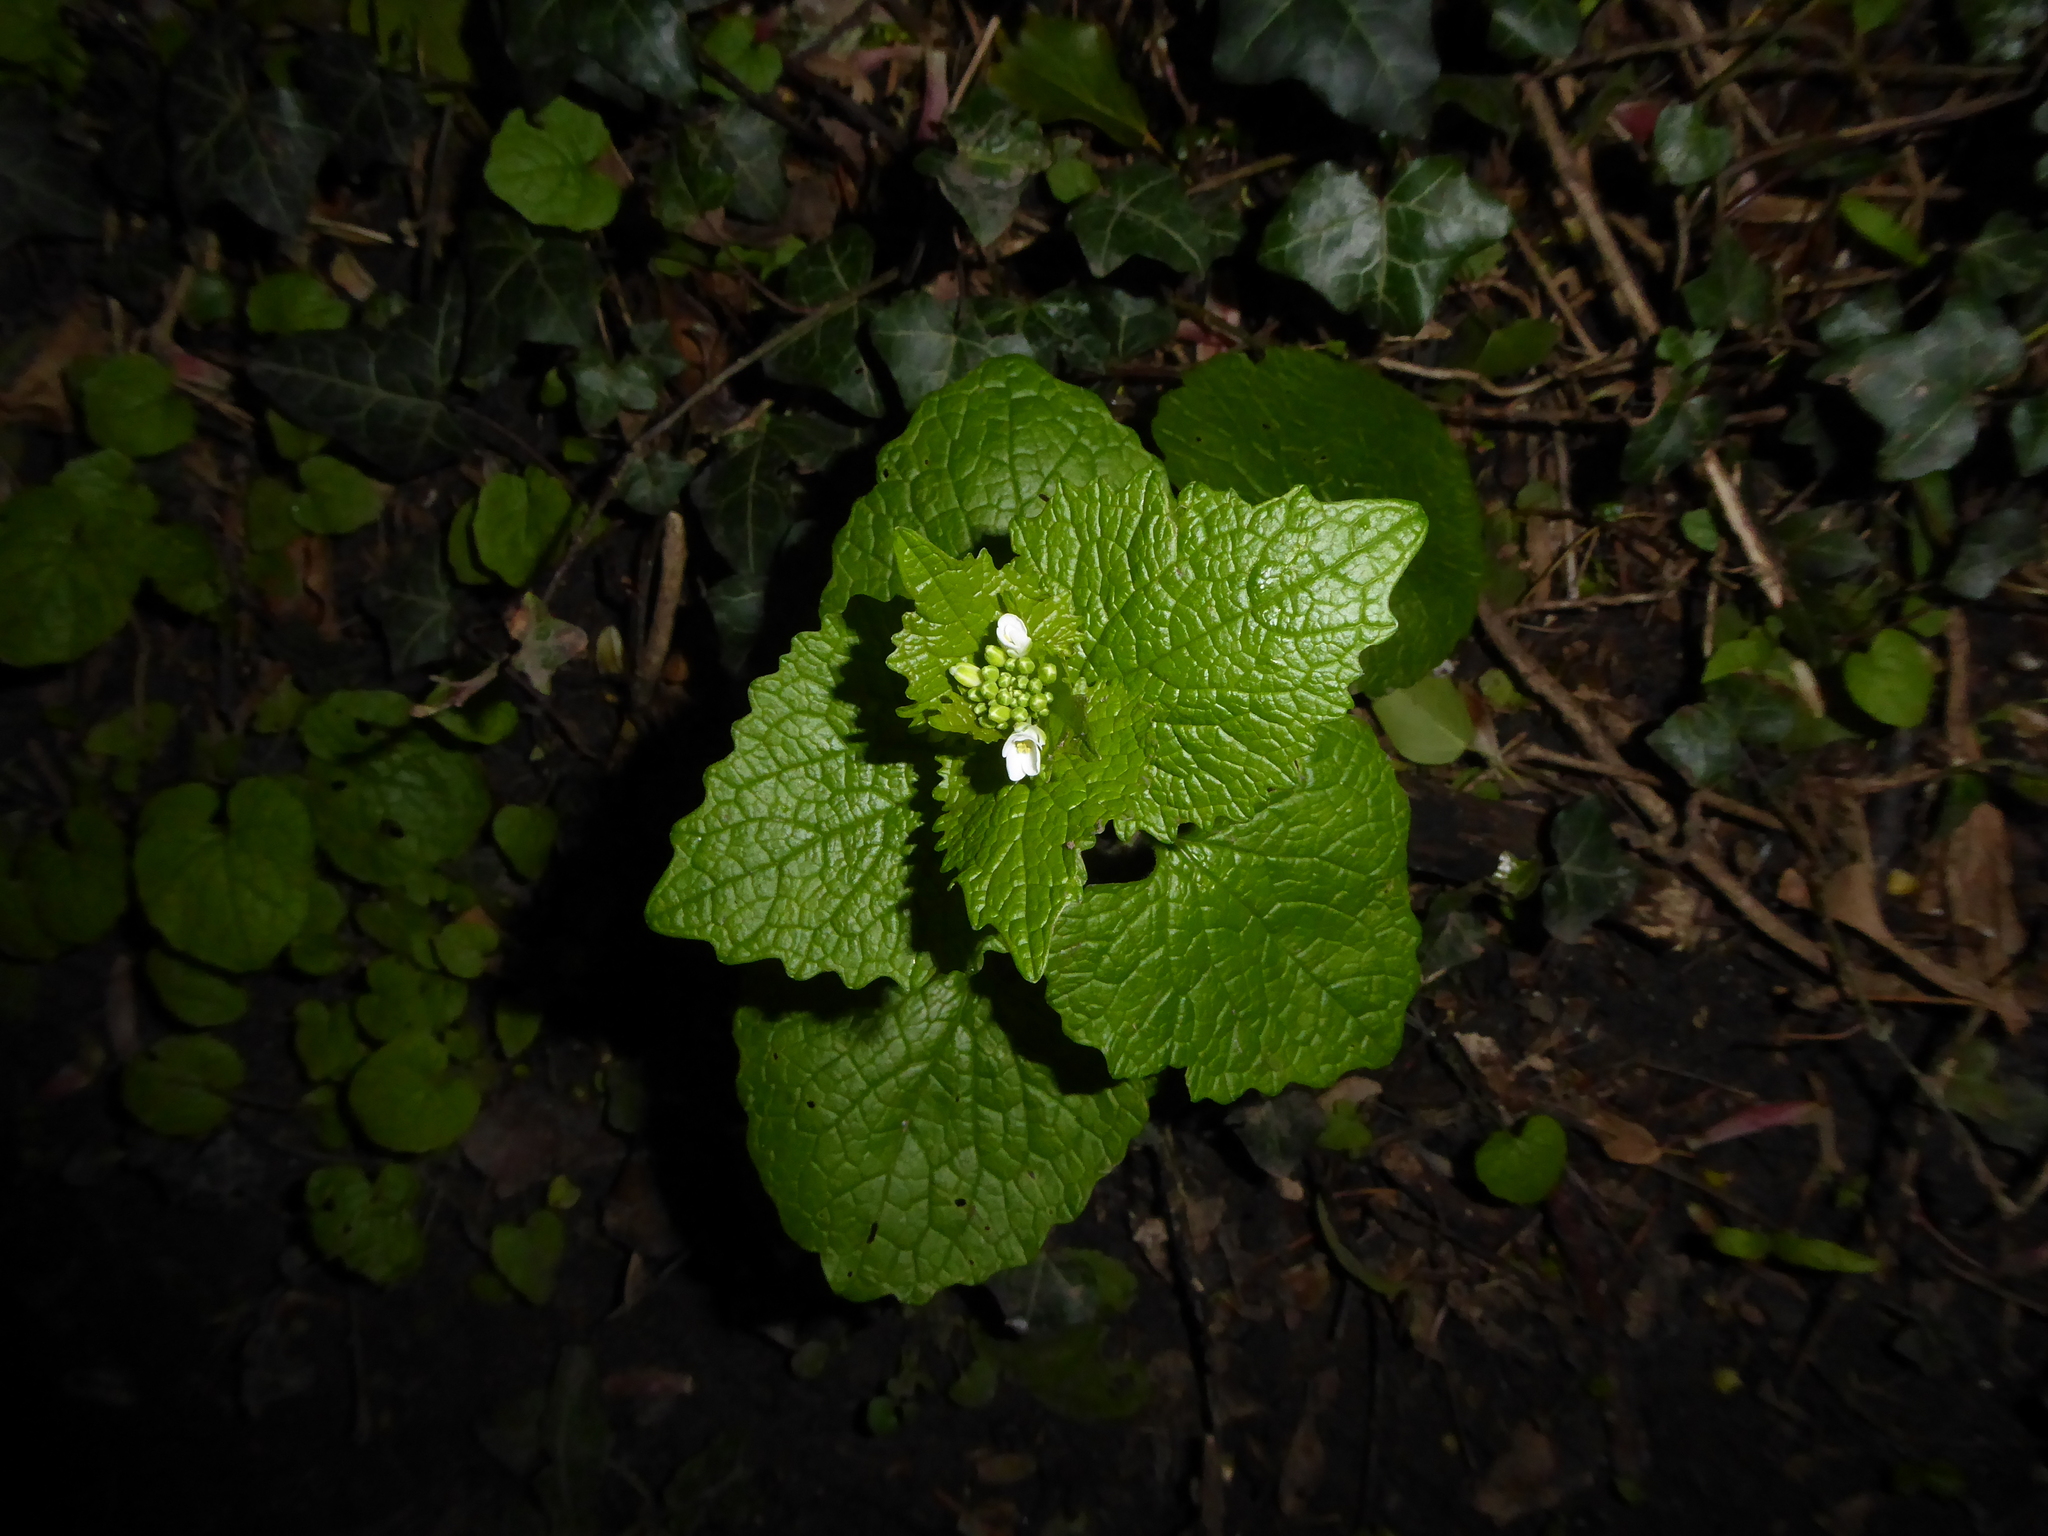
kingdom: Plantae
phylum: Tracheophyta
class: Magnoliopsida
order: Brassicales
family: Brassicaceae
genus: Alliaria
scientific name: Alliaria petiolata
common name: Garlic mustard
